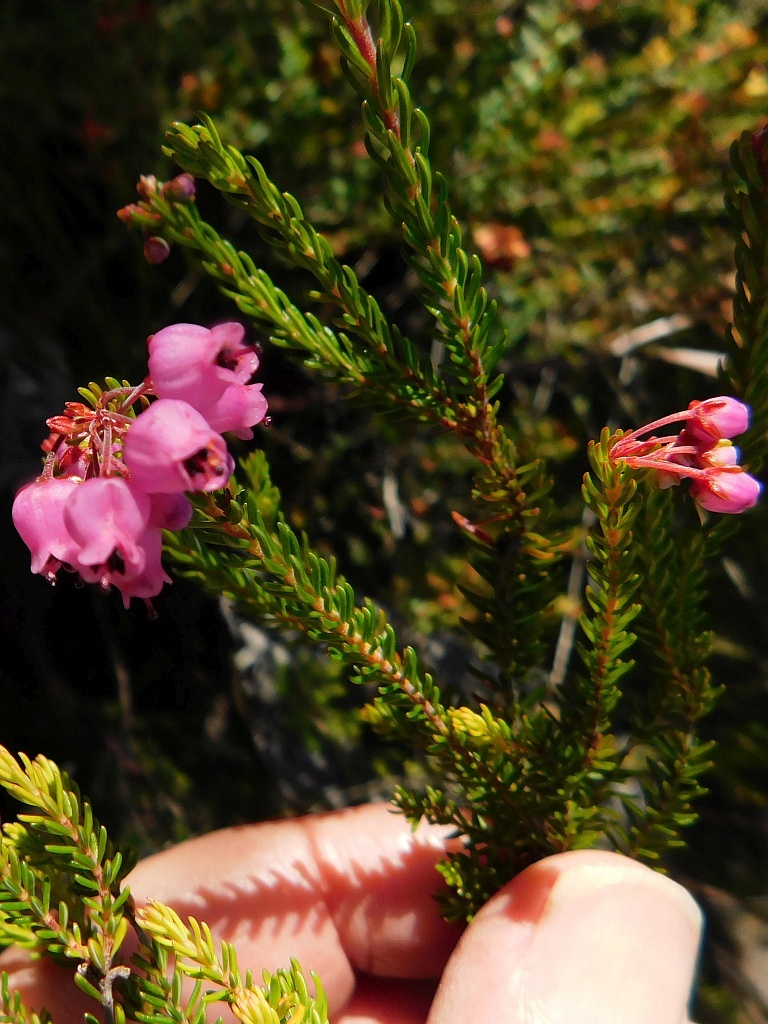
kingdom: Plantae
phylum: Tracheophyta
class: Magnoliopsida
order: Ericales
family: Ericaceae
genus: Erica
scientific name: Erica lateralis
